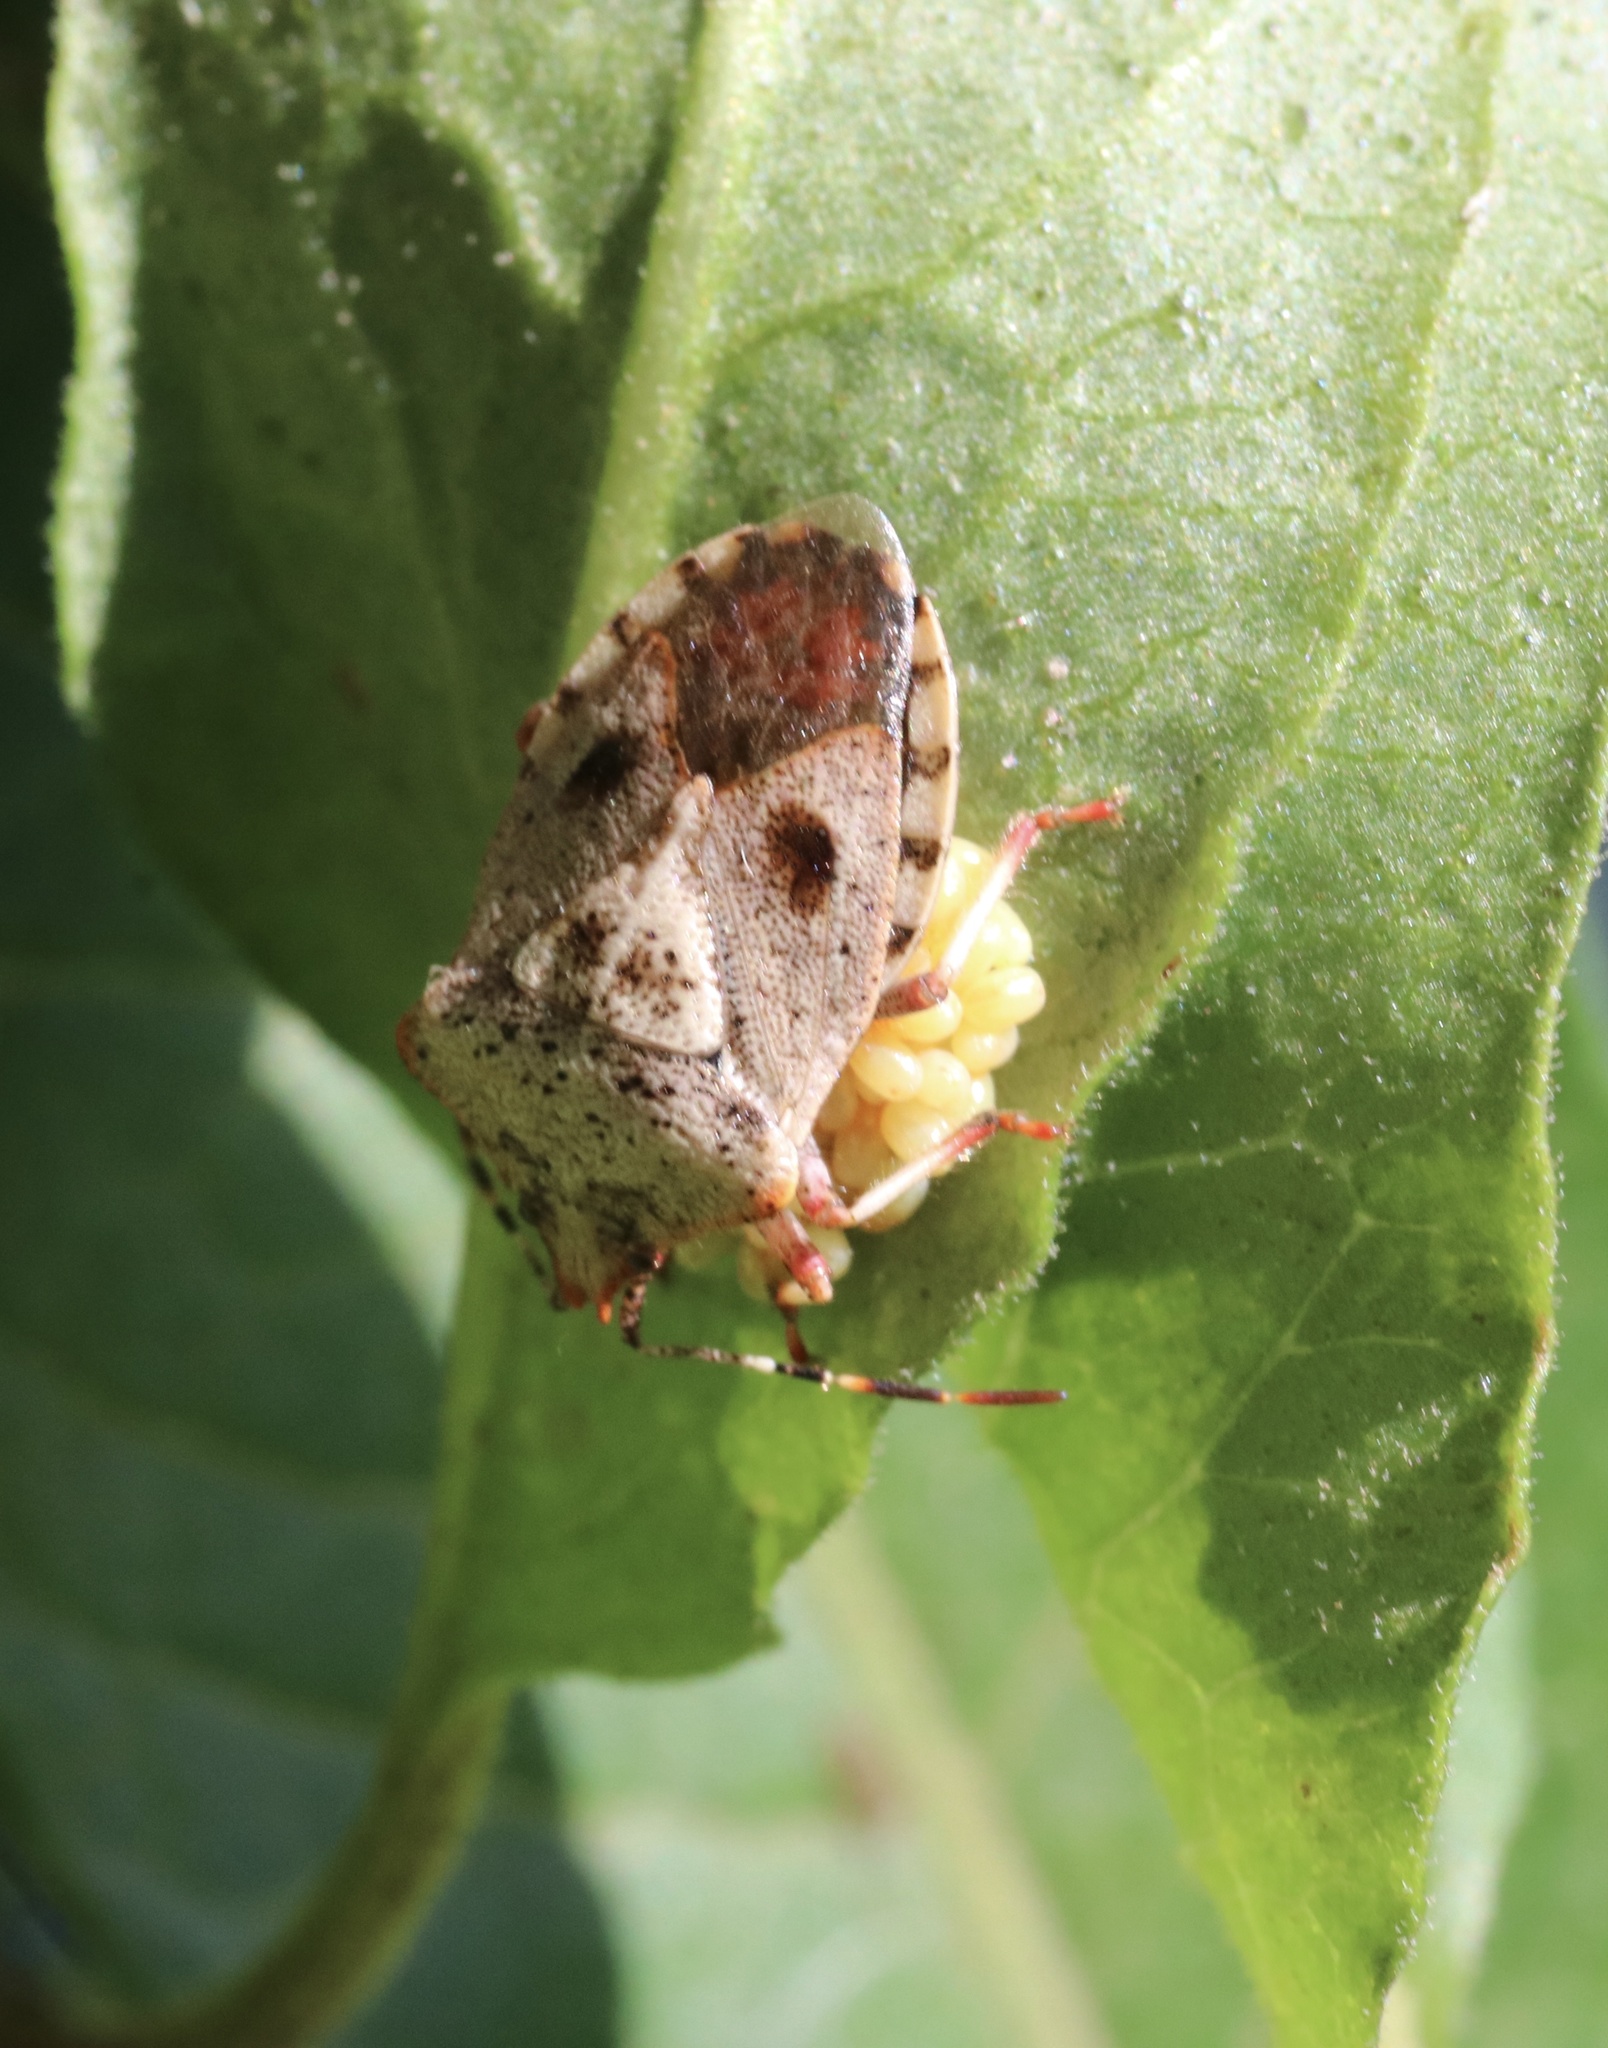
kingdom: Animalia
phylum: Arthropoda
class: Insecta
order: Hemiptera
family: Acanthosomatidae
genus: Phorbanta
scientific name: Phorbanta variabilis
